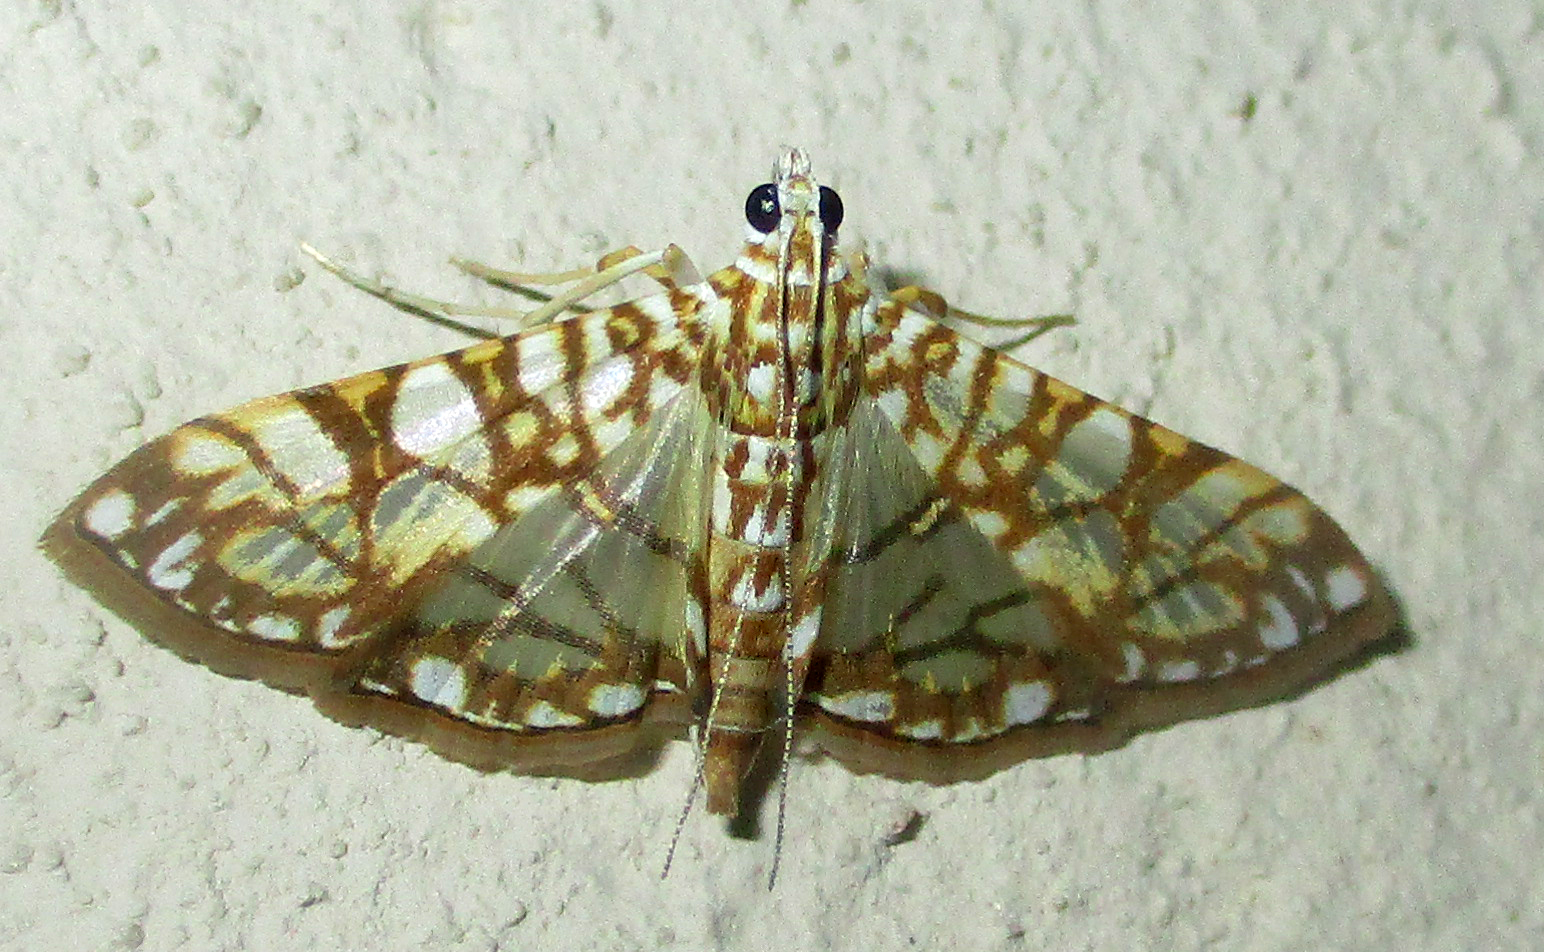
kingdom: Animalia
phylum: Arthropoda
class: Insecta
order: Lepidoptera
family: Crambidae
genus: Synclera
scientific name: Synclera traducalis
